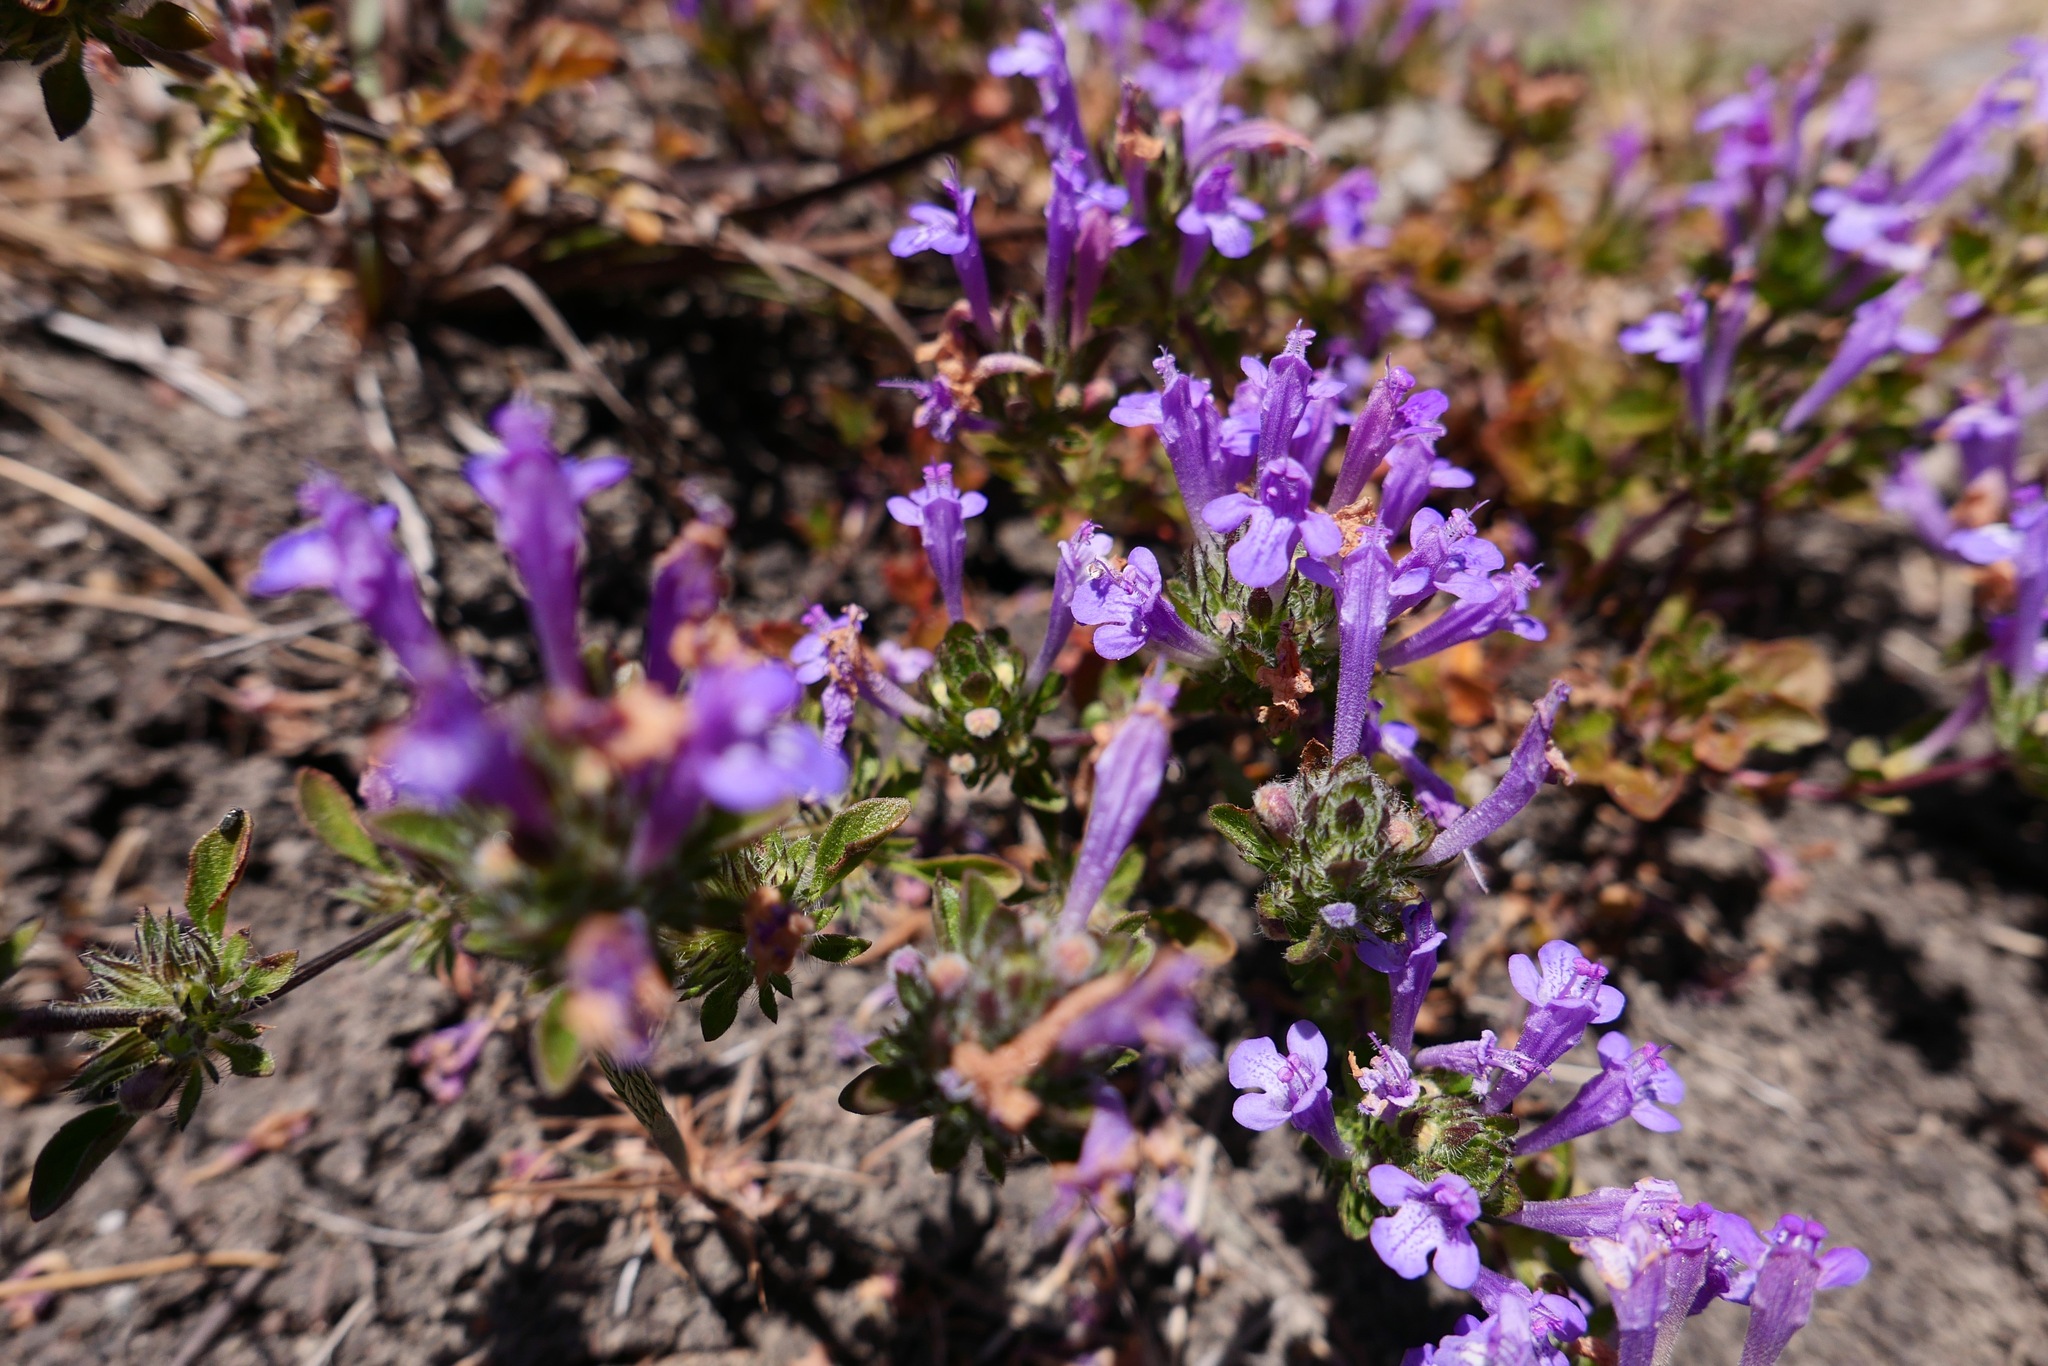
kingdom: Plantae
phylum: Tracheophyta
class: Magnoliopsida
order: Lamiales
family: Lamiaceae
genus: Pogogyne
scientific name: Pogogyne douglasii
